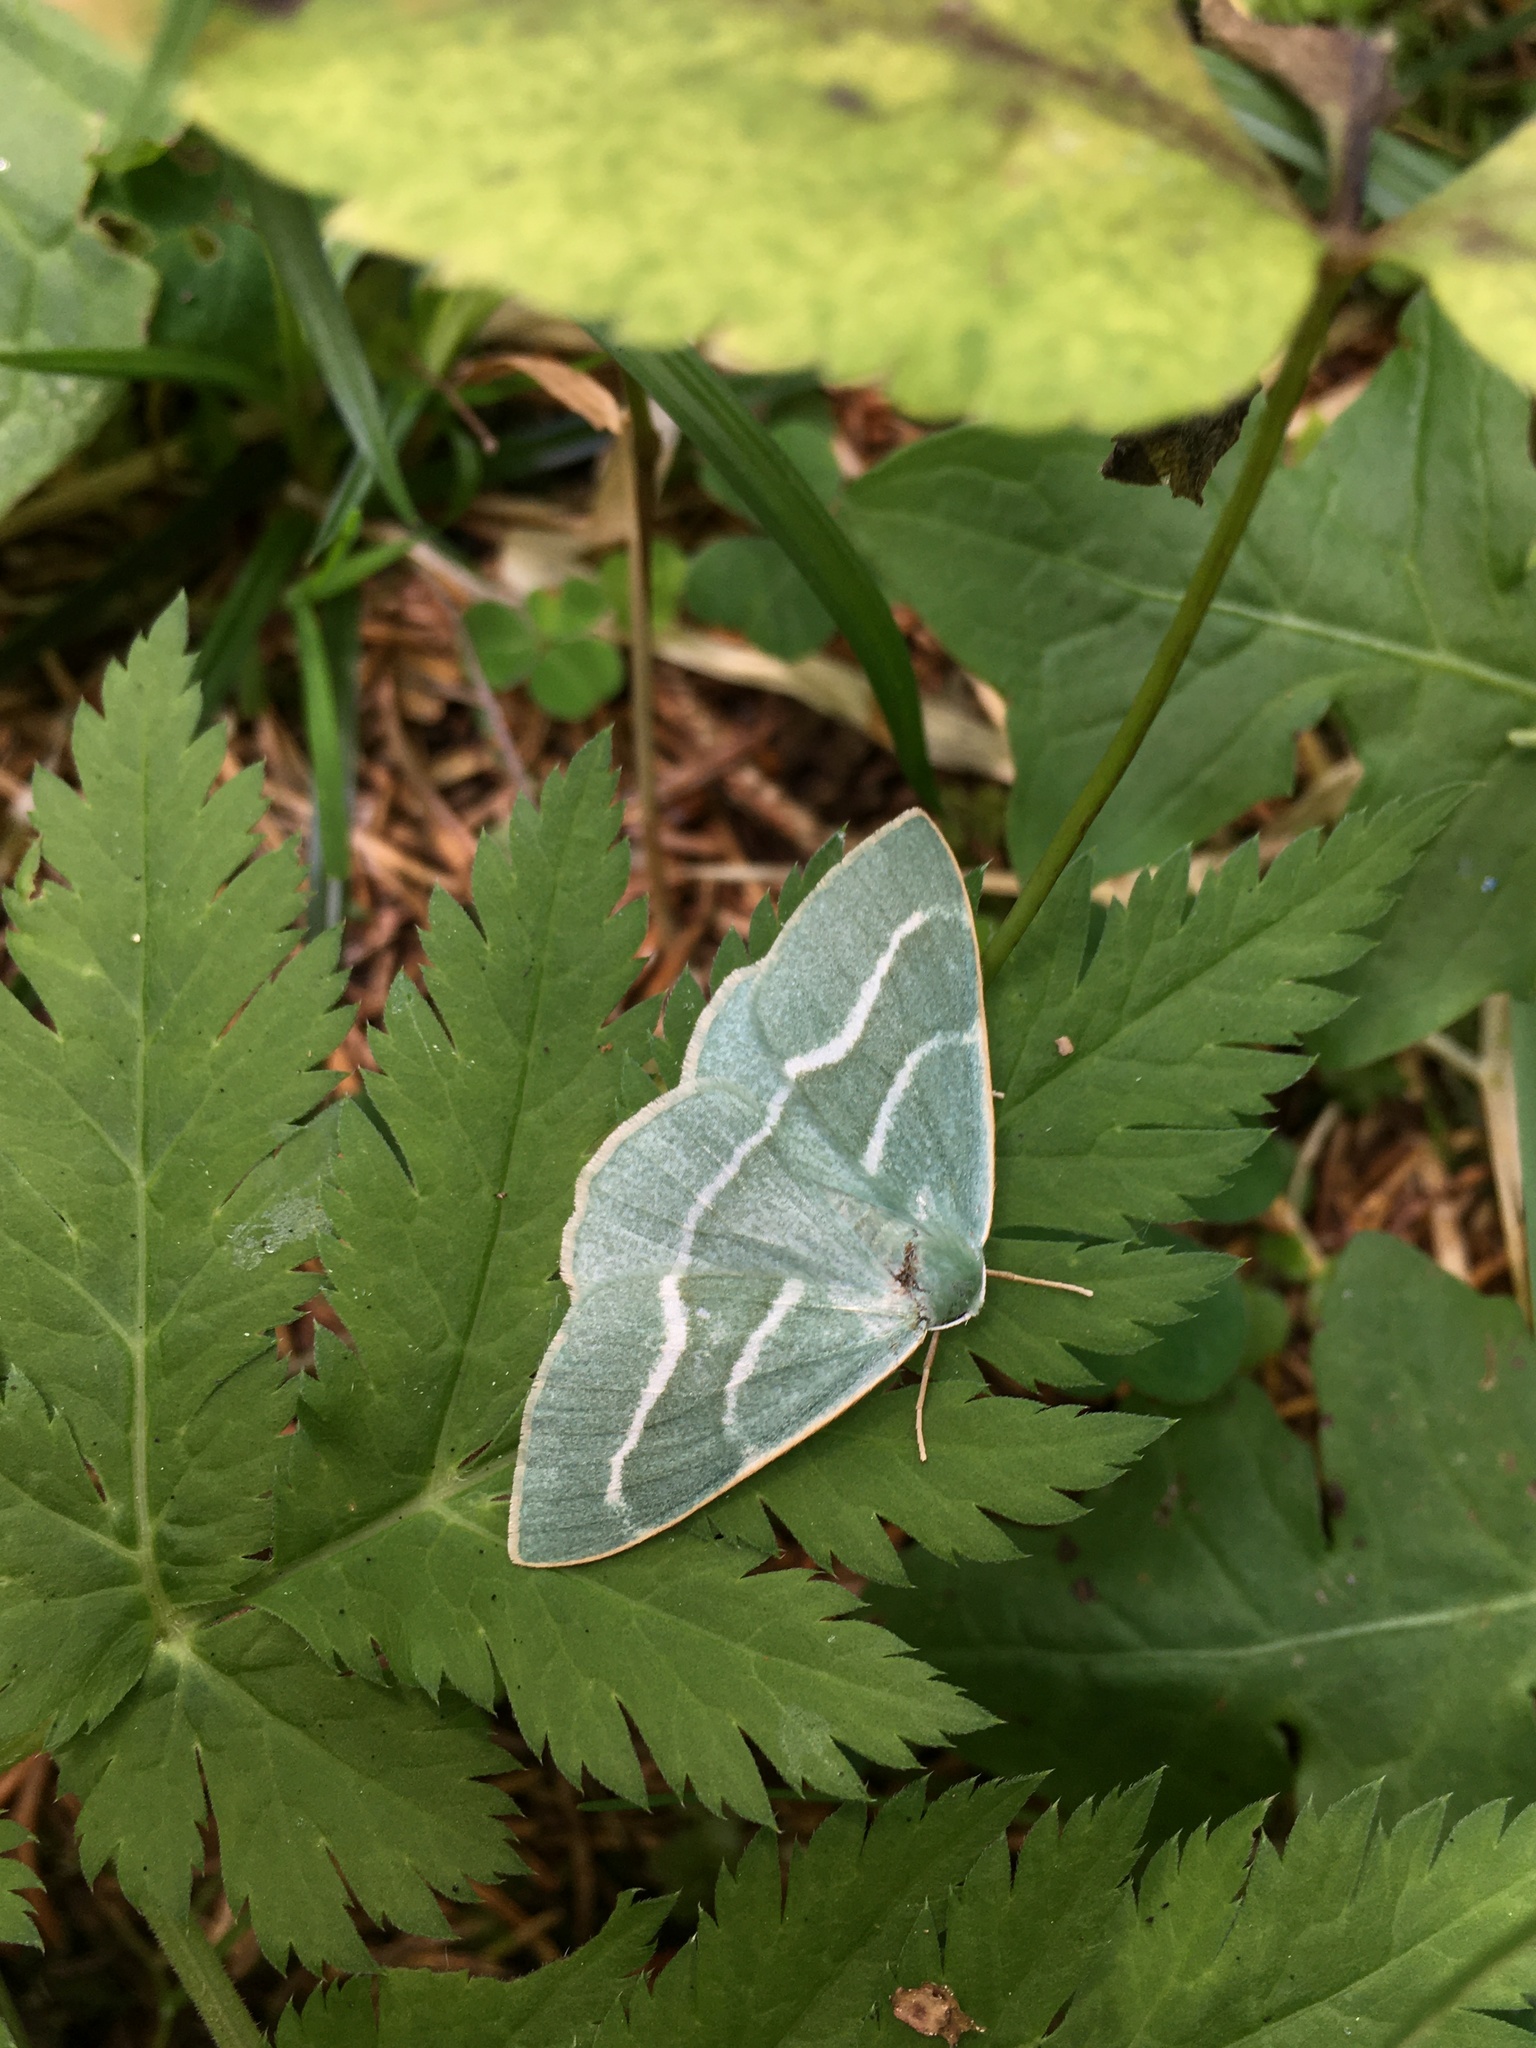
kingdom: Animalia
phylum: Arthropoda
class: Insecta
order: Lepidoptera
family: Geometridae
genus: Hylaea
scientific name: Hylaea fasciaria
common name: Barred red
